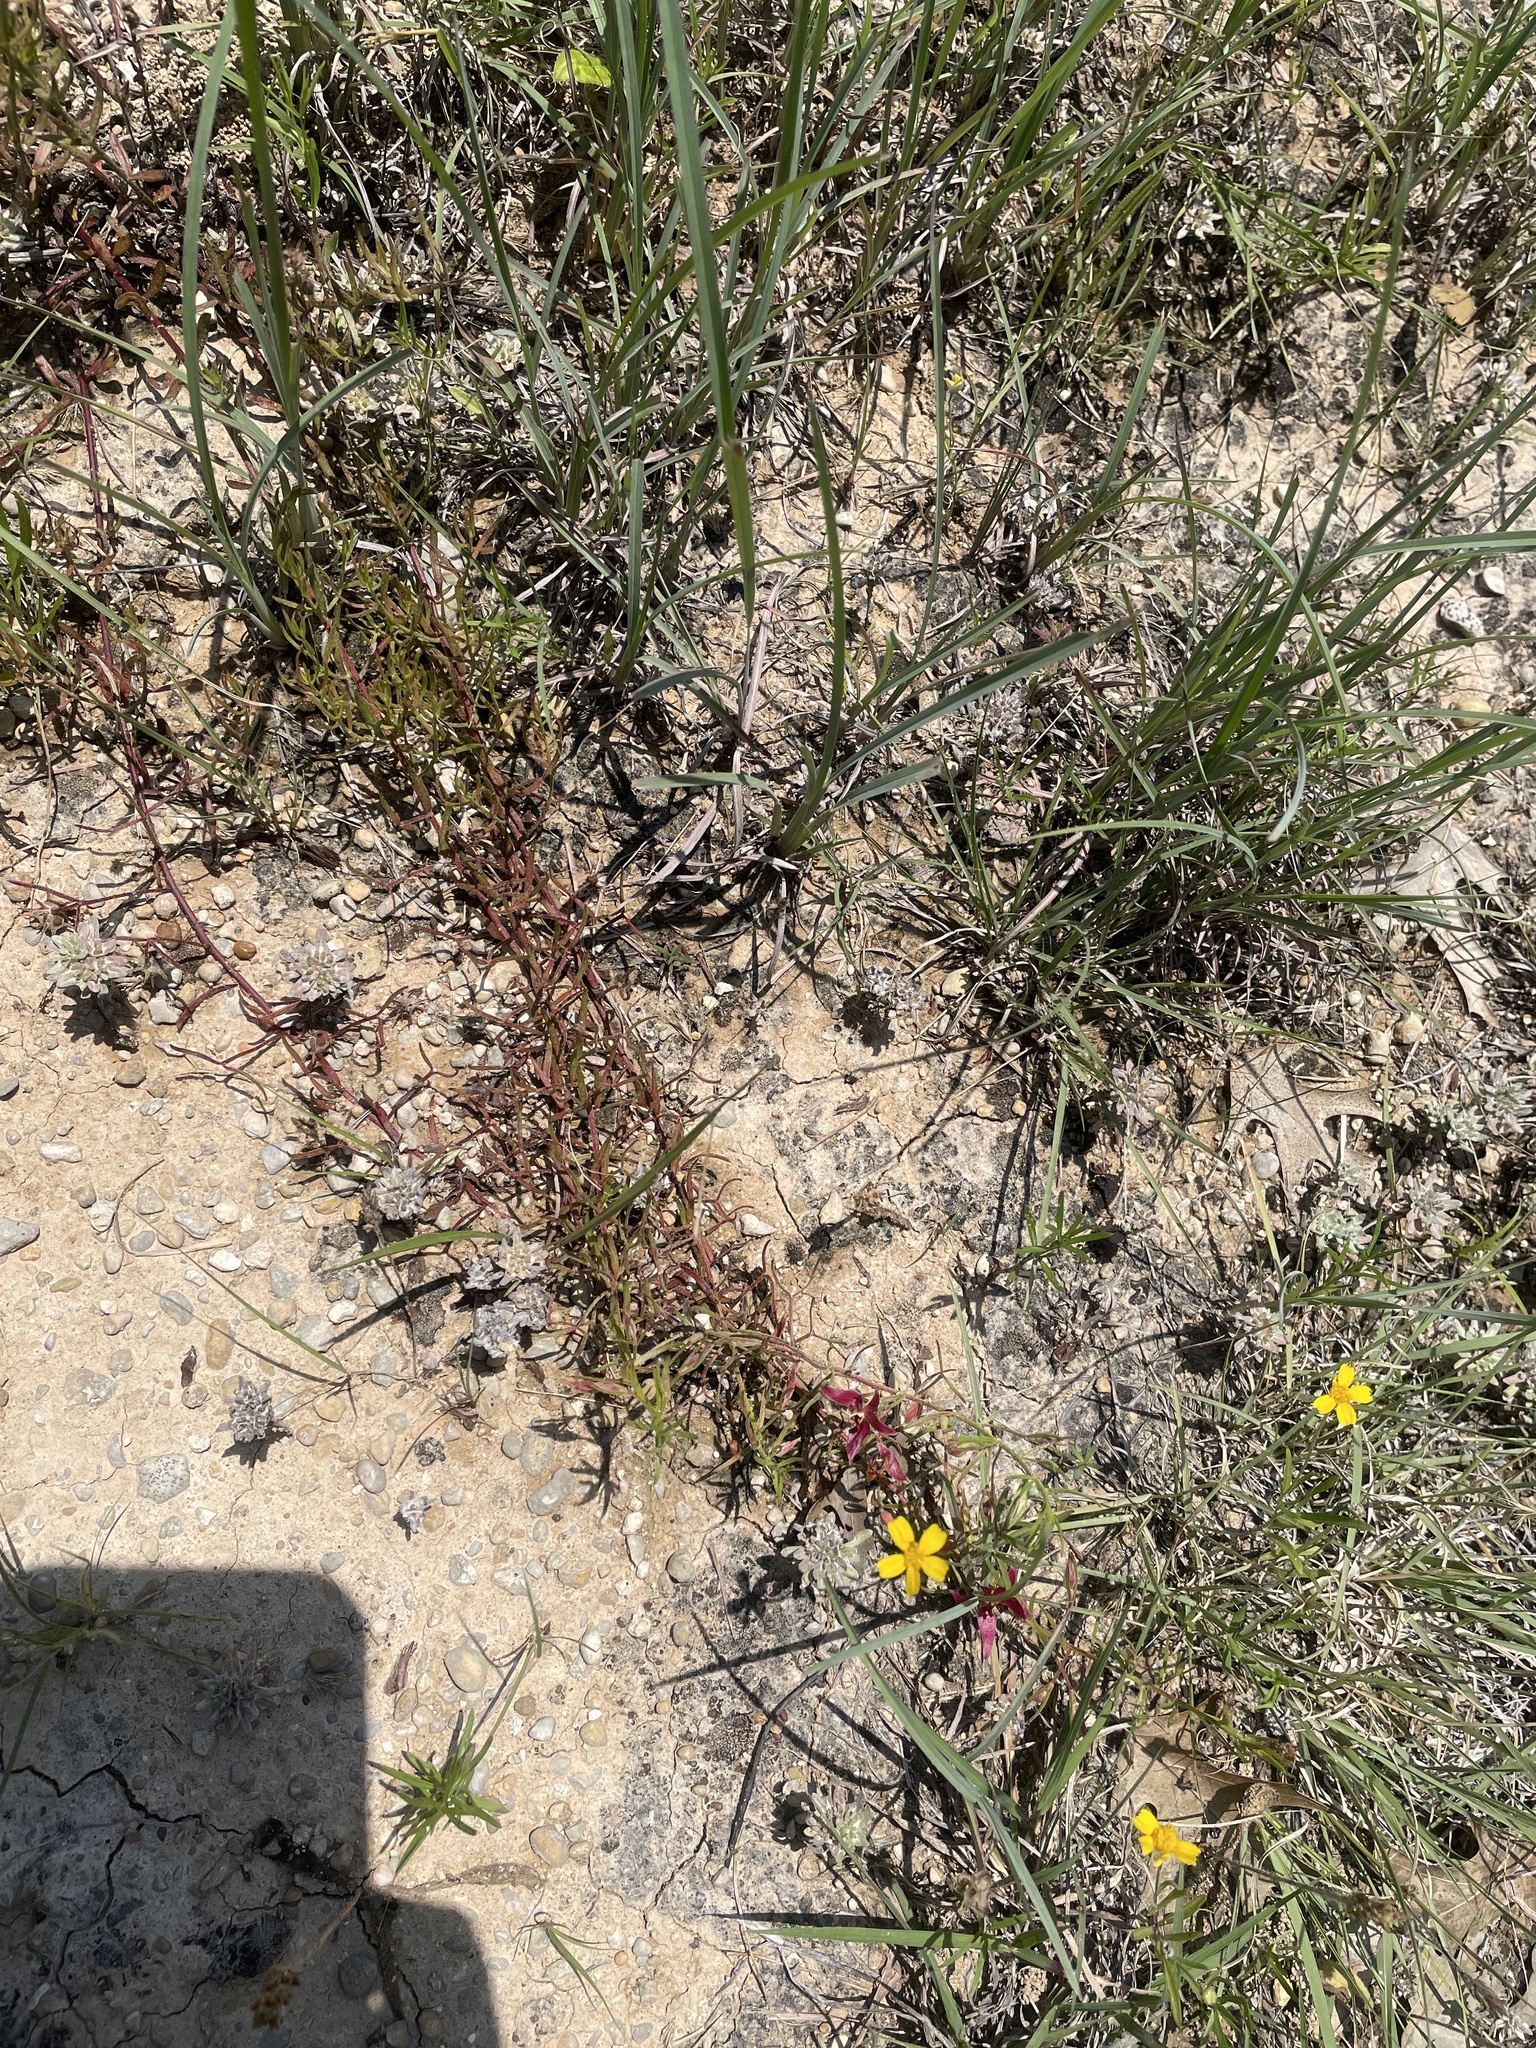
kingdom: Plantae
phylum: Tracheophyta
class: Magnoliopsida
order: Zygophyllales
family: Krameriaceae
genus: Krameria
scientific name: Krameria lanceolata
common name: Ratany
